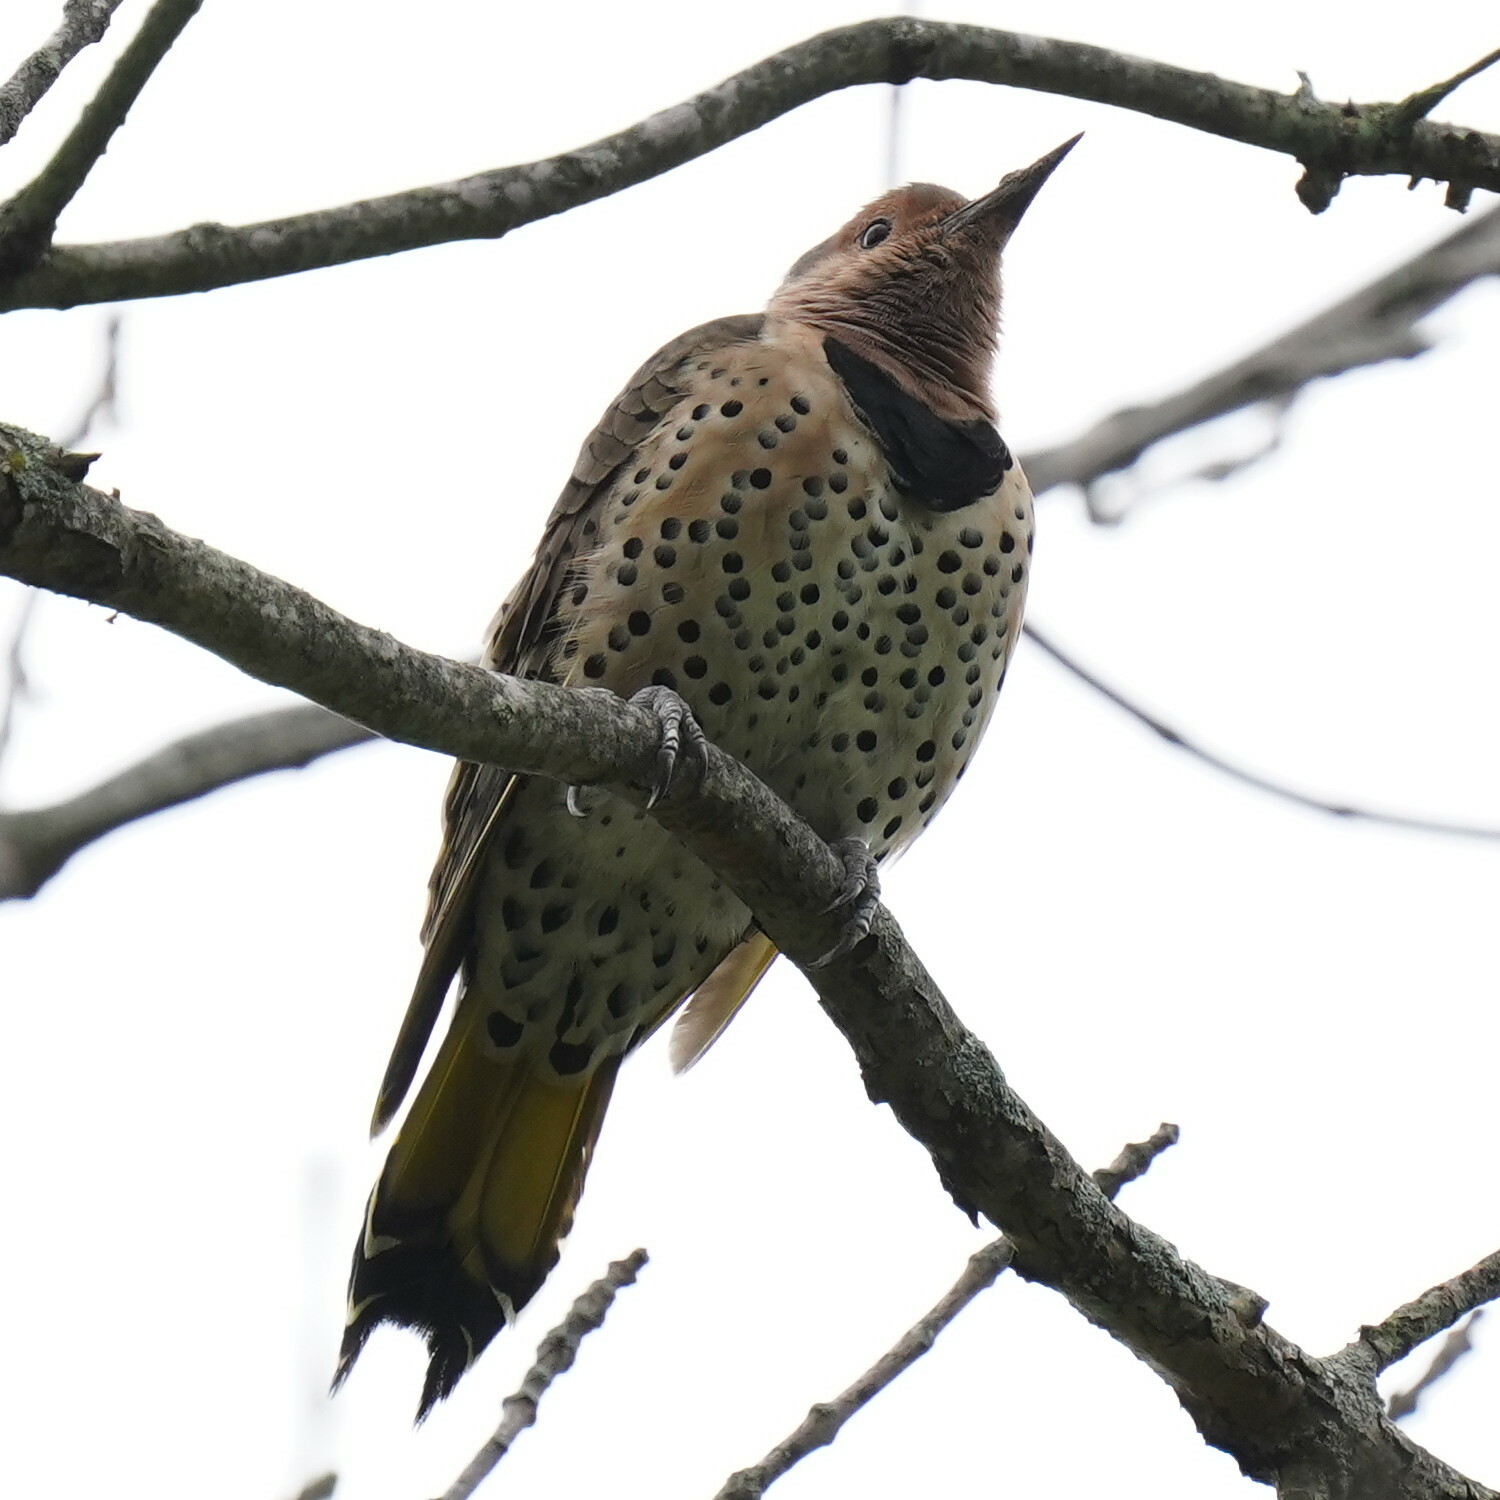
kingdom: Animalia
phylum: Chordata
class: Aves
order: Piciformes
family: Picidae
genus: Colaptes
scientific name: Colaptes auratus
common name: Northern flicker
